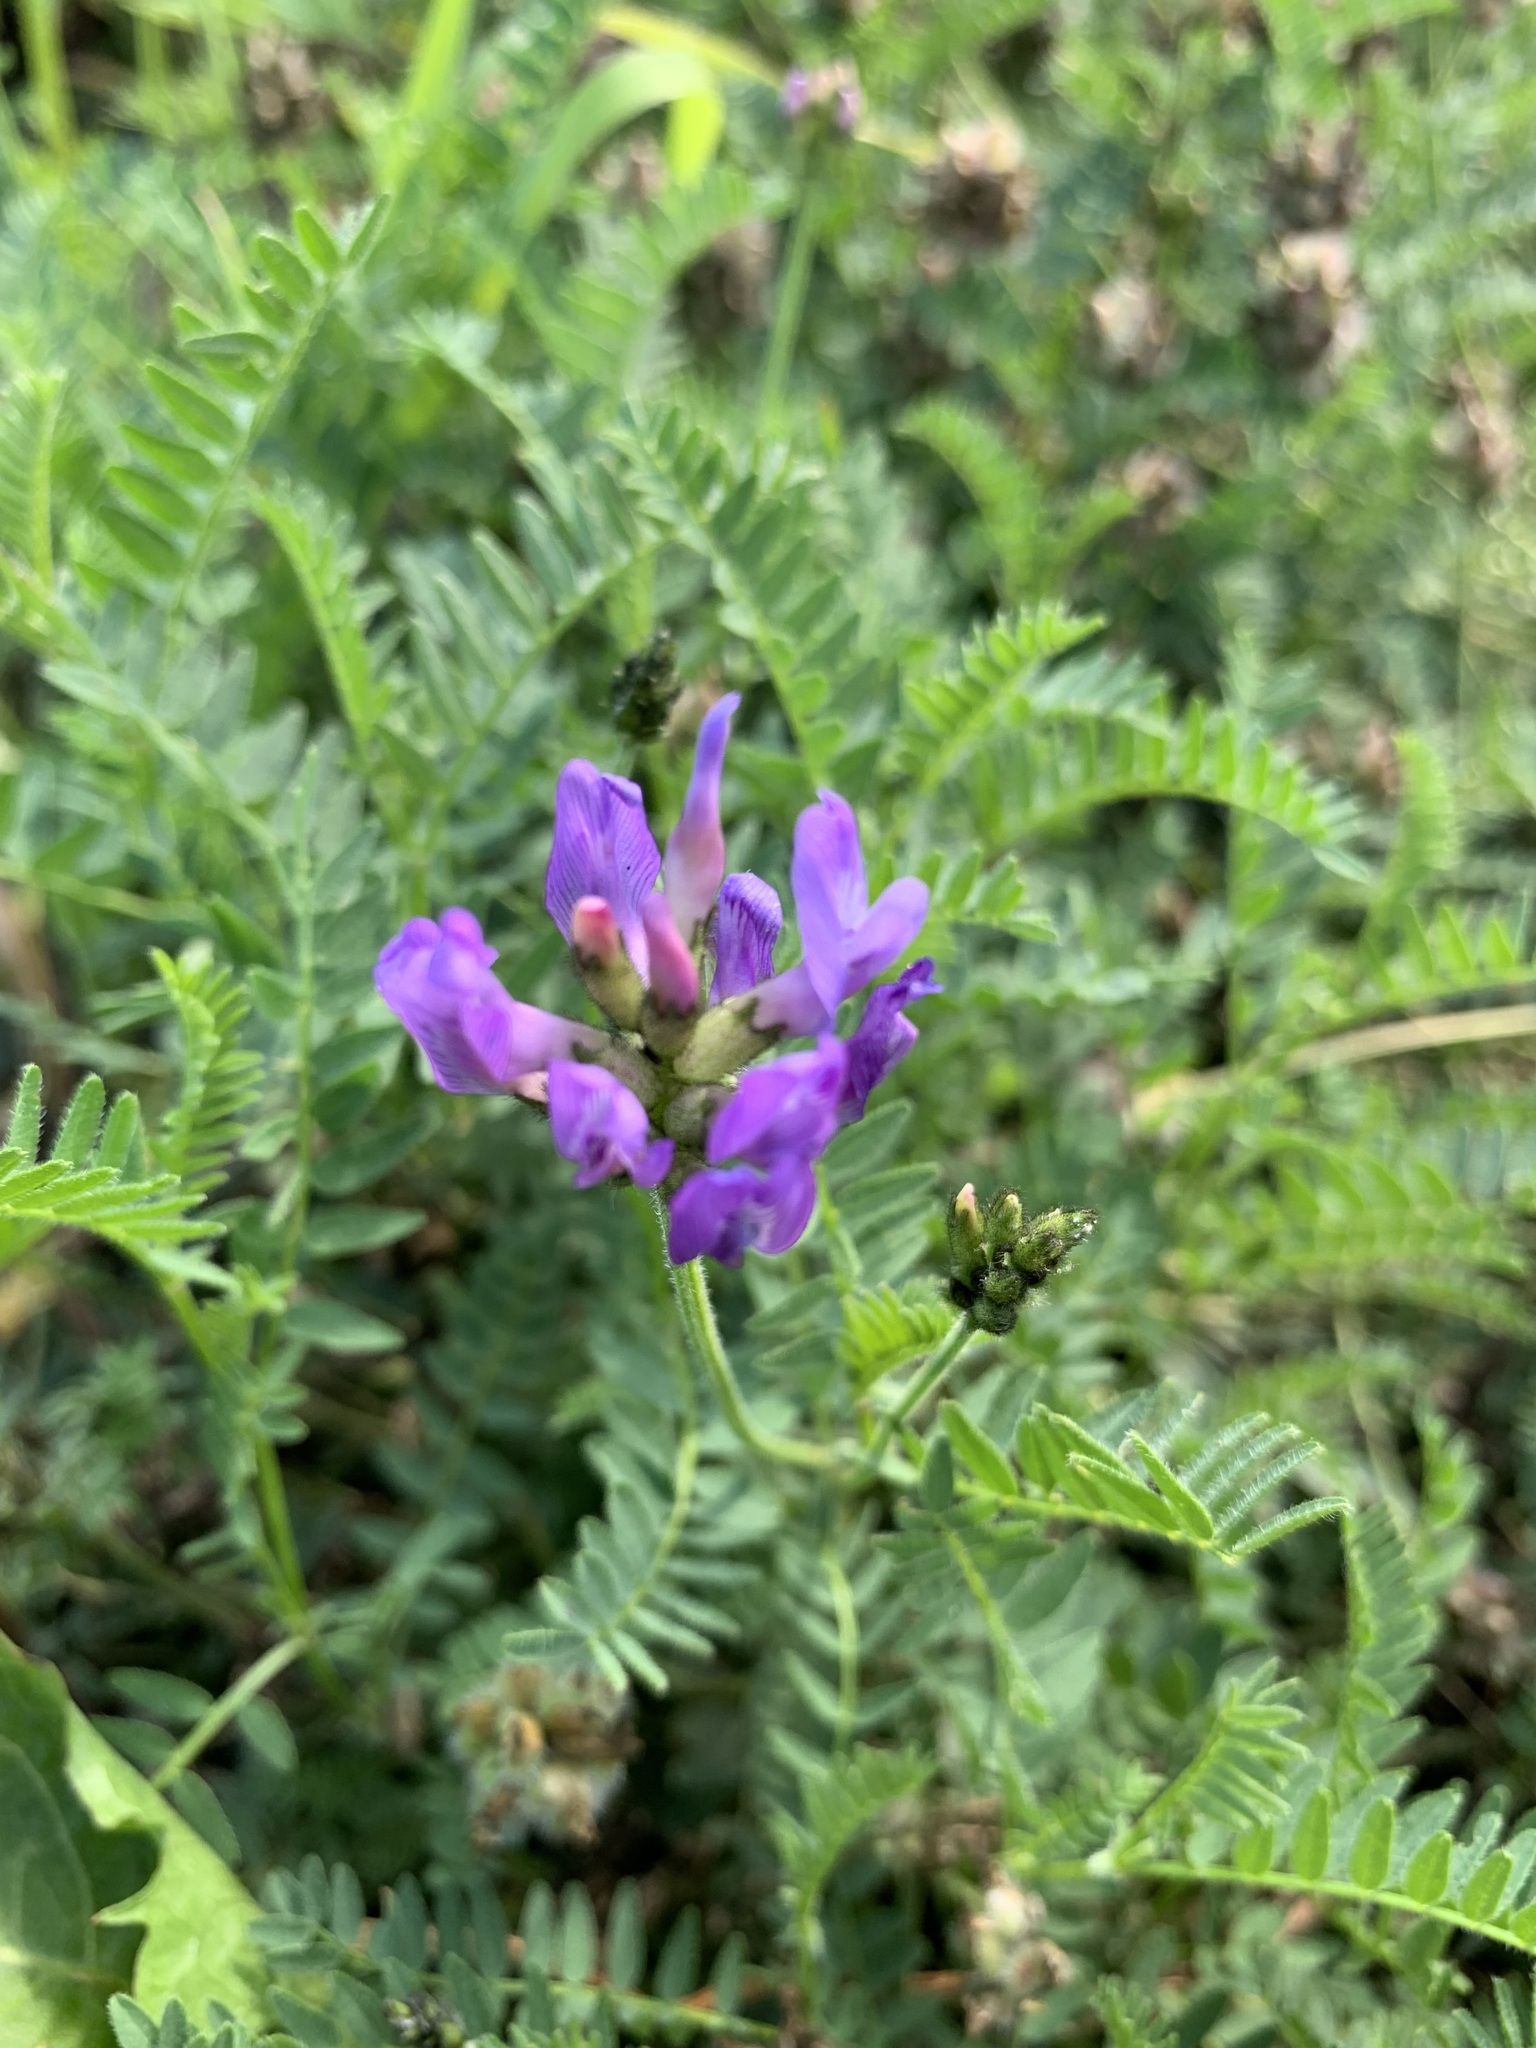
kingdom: Plantae
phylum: Tracheophyta
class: Magnoliopsida
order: Fabales
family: Fabaceae
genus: Astragalus
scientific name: Astragalus danicus
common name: Purple milk-vetch
